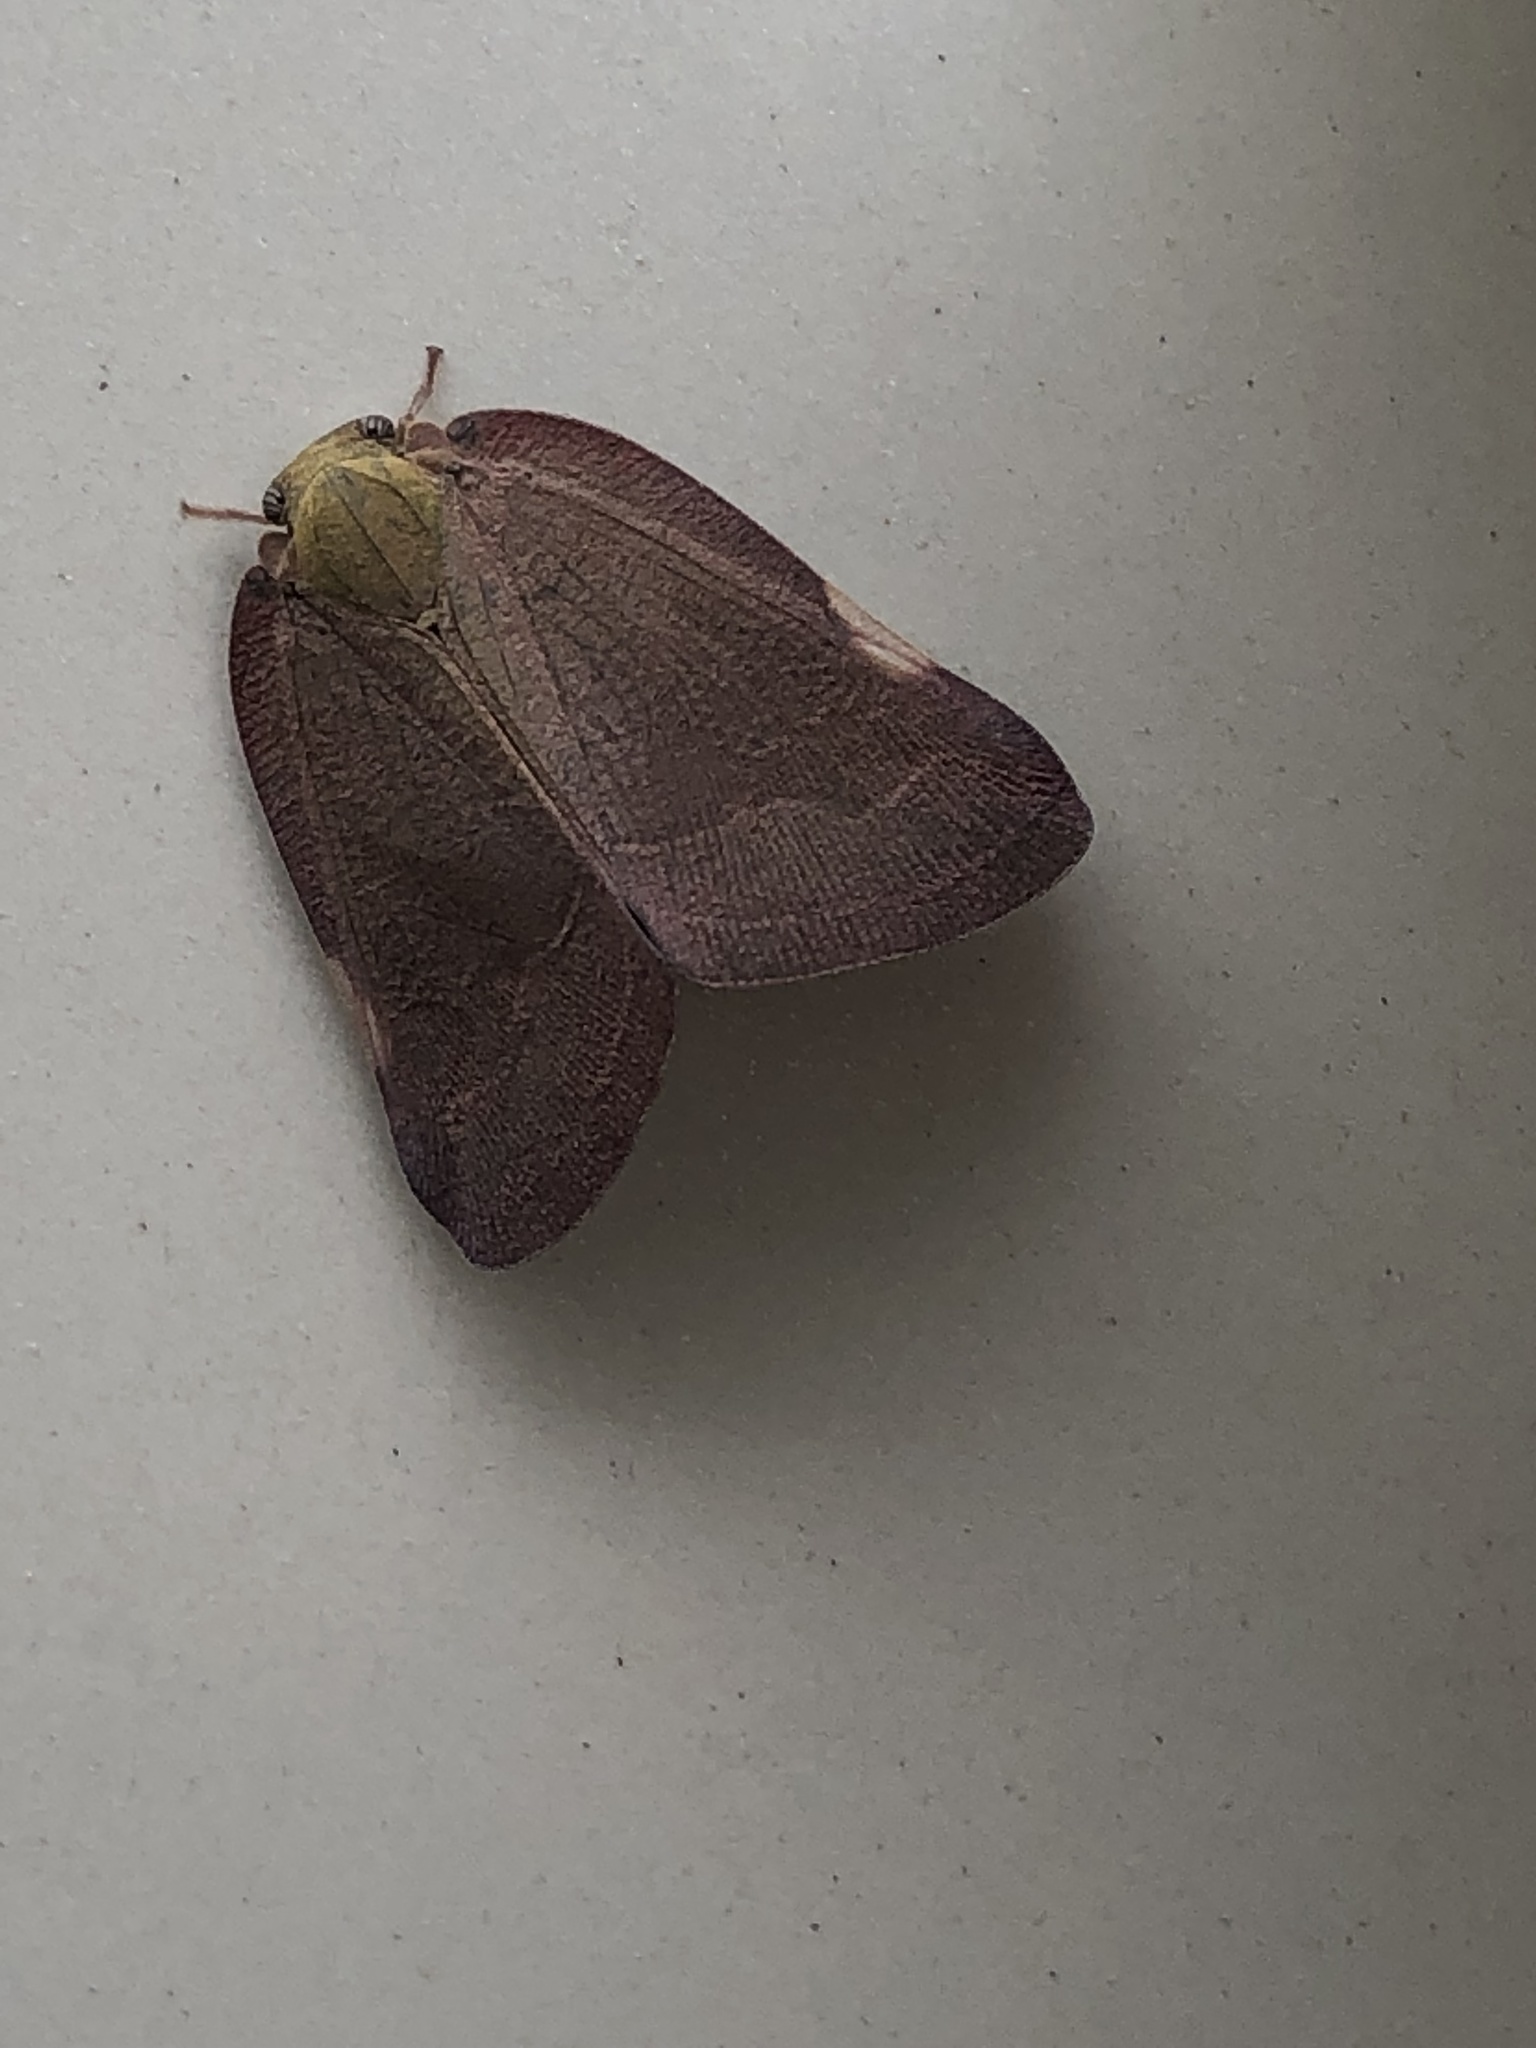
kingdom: Animalia
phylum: Arthropoda
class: Insecta
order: Hemiptera
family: Ricaniidae
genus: Ricanula
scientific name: Ricanula sublimata
